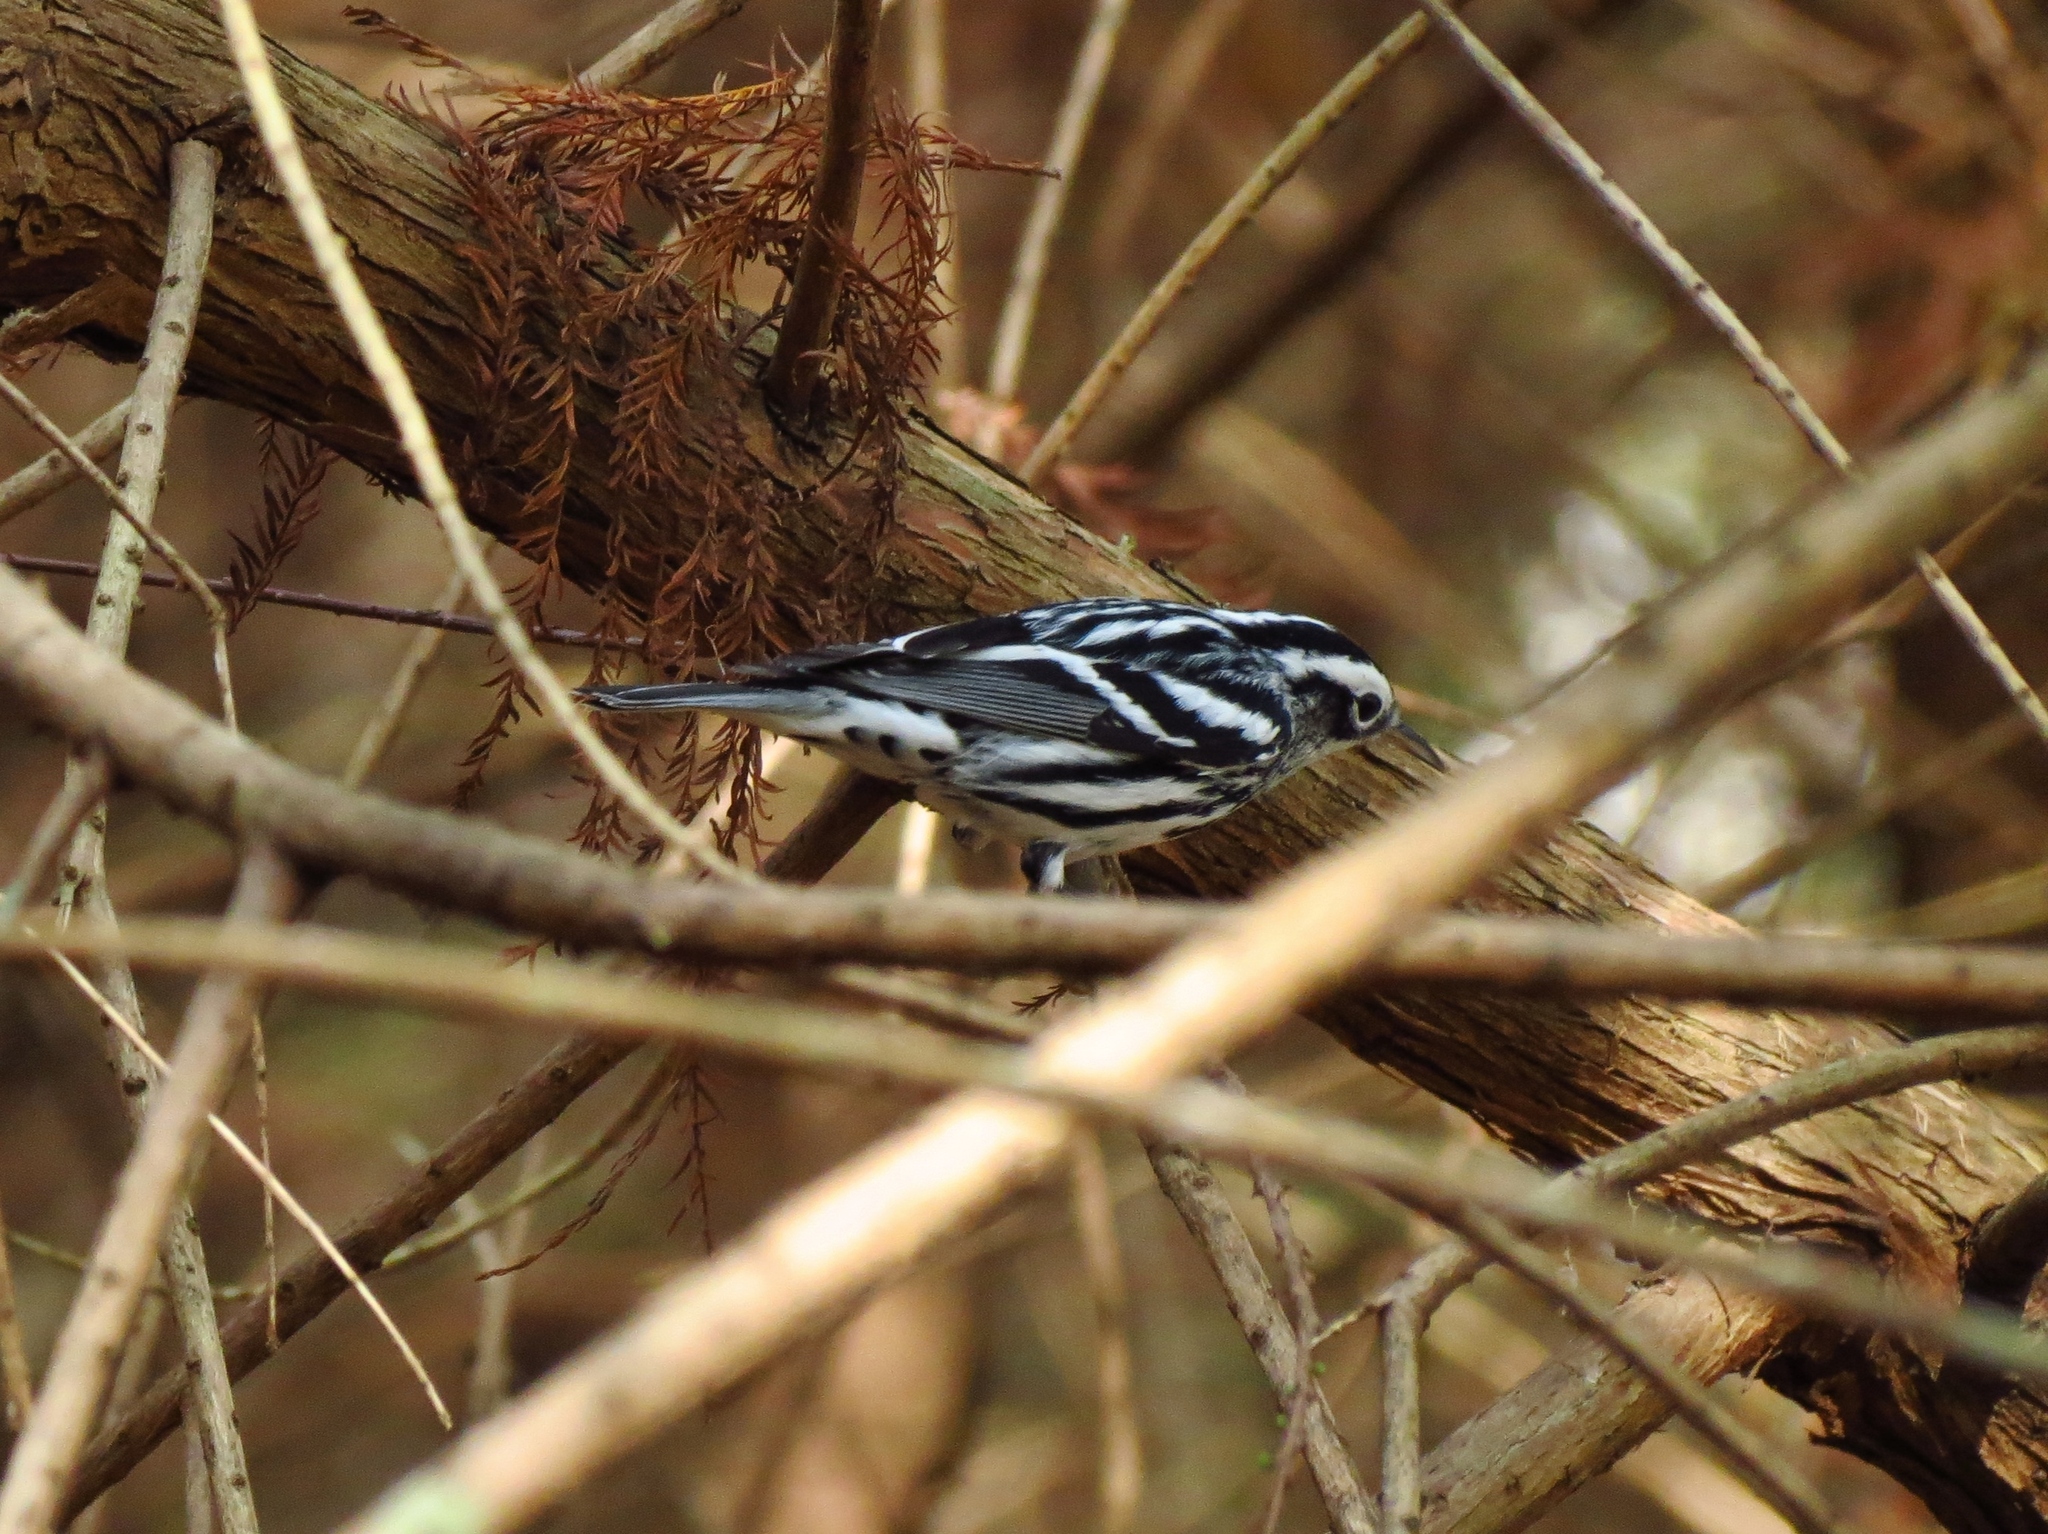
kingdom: Animalia
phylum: Chordata
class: Aves
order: Passeriformes
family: Parulidae
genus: Mniotilta
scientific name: Mniotilta varia
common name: Black-and-white warbler
